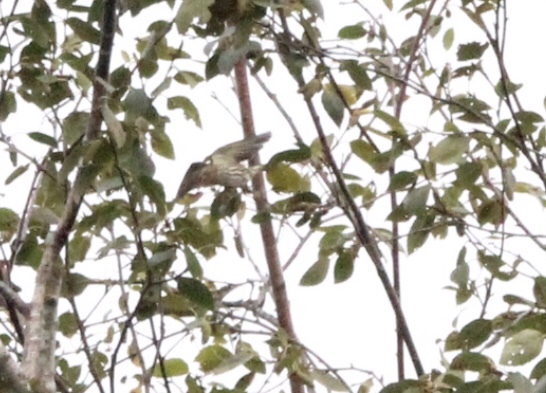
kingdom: Animalia
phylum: Chordata
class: Aves
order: Passeriformes
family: Fringillidae
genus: Spinus
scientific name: Spinus pinus
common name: Pine siskin
